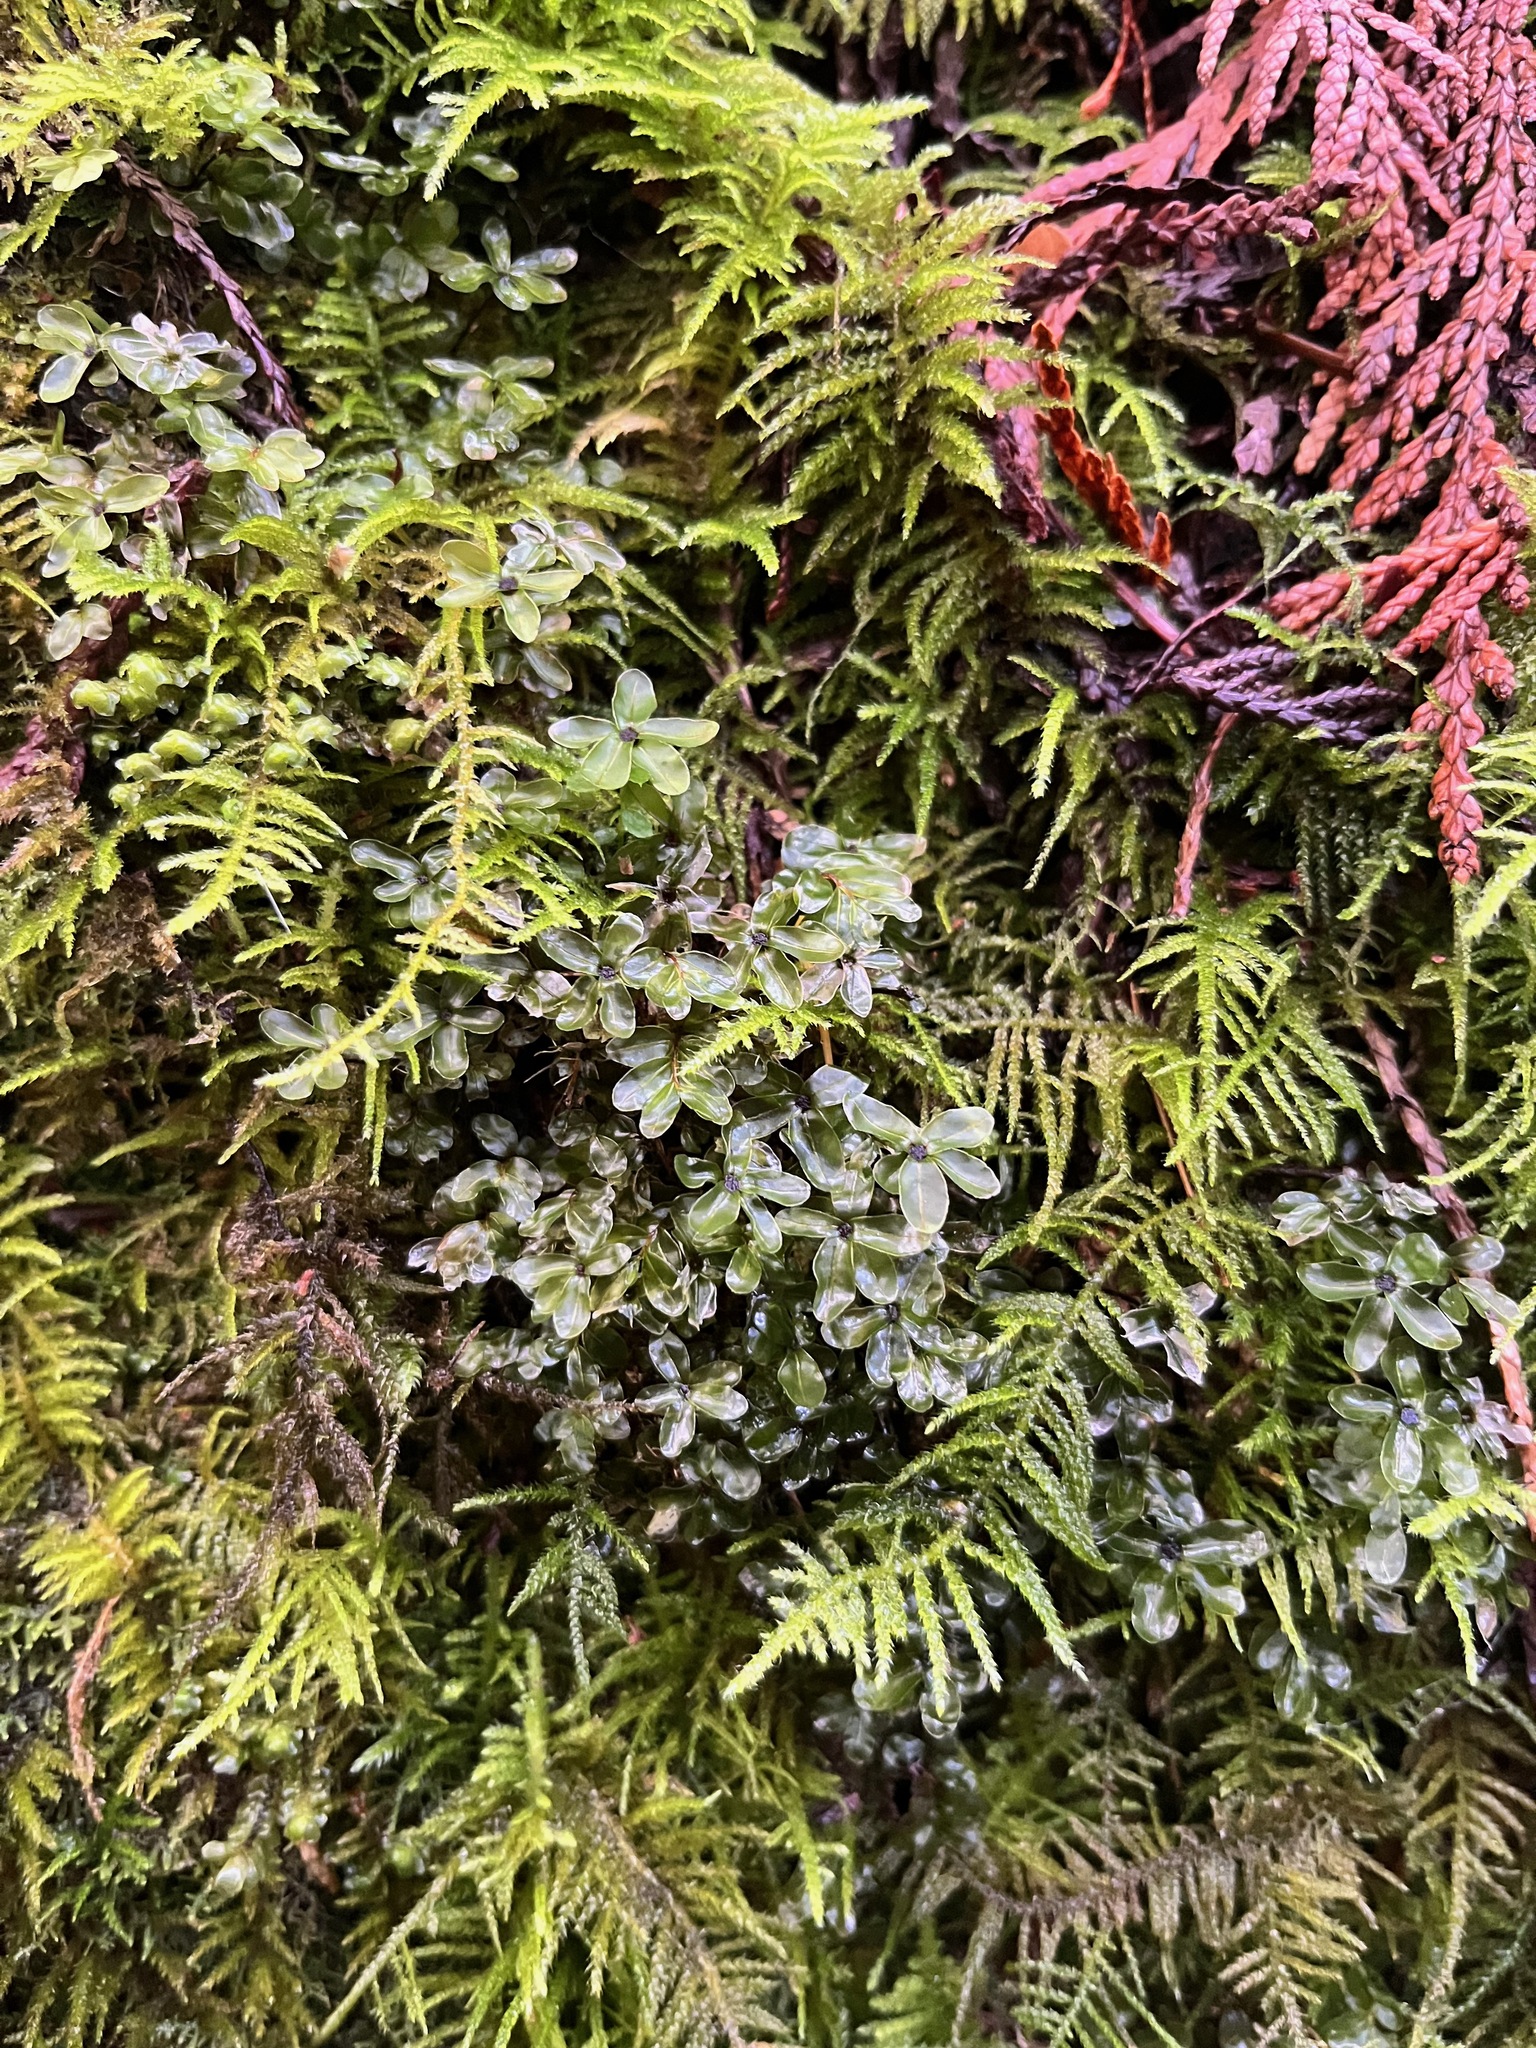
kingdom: Plantae
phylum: Bryophyta
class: Bryopsida
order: Bryales
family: Mniaceae
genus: Rhizomnium
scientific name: Rhizomnium glabrescens
